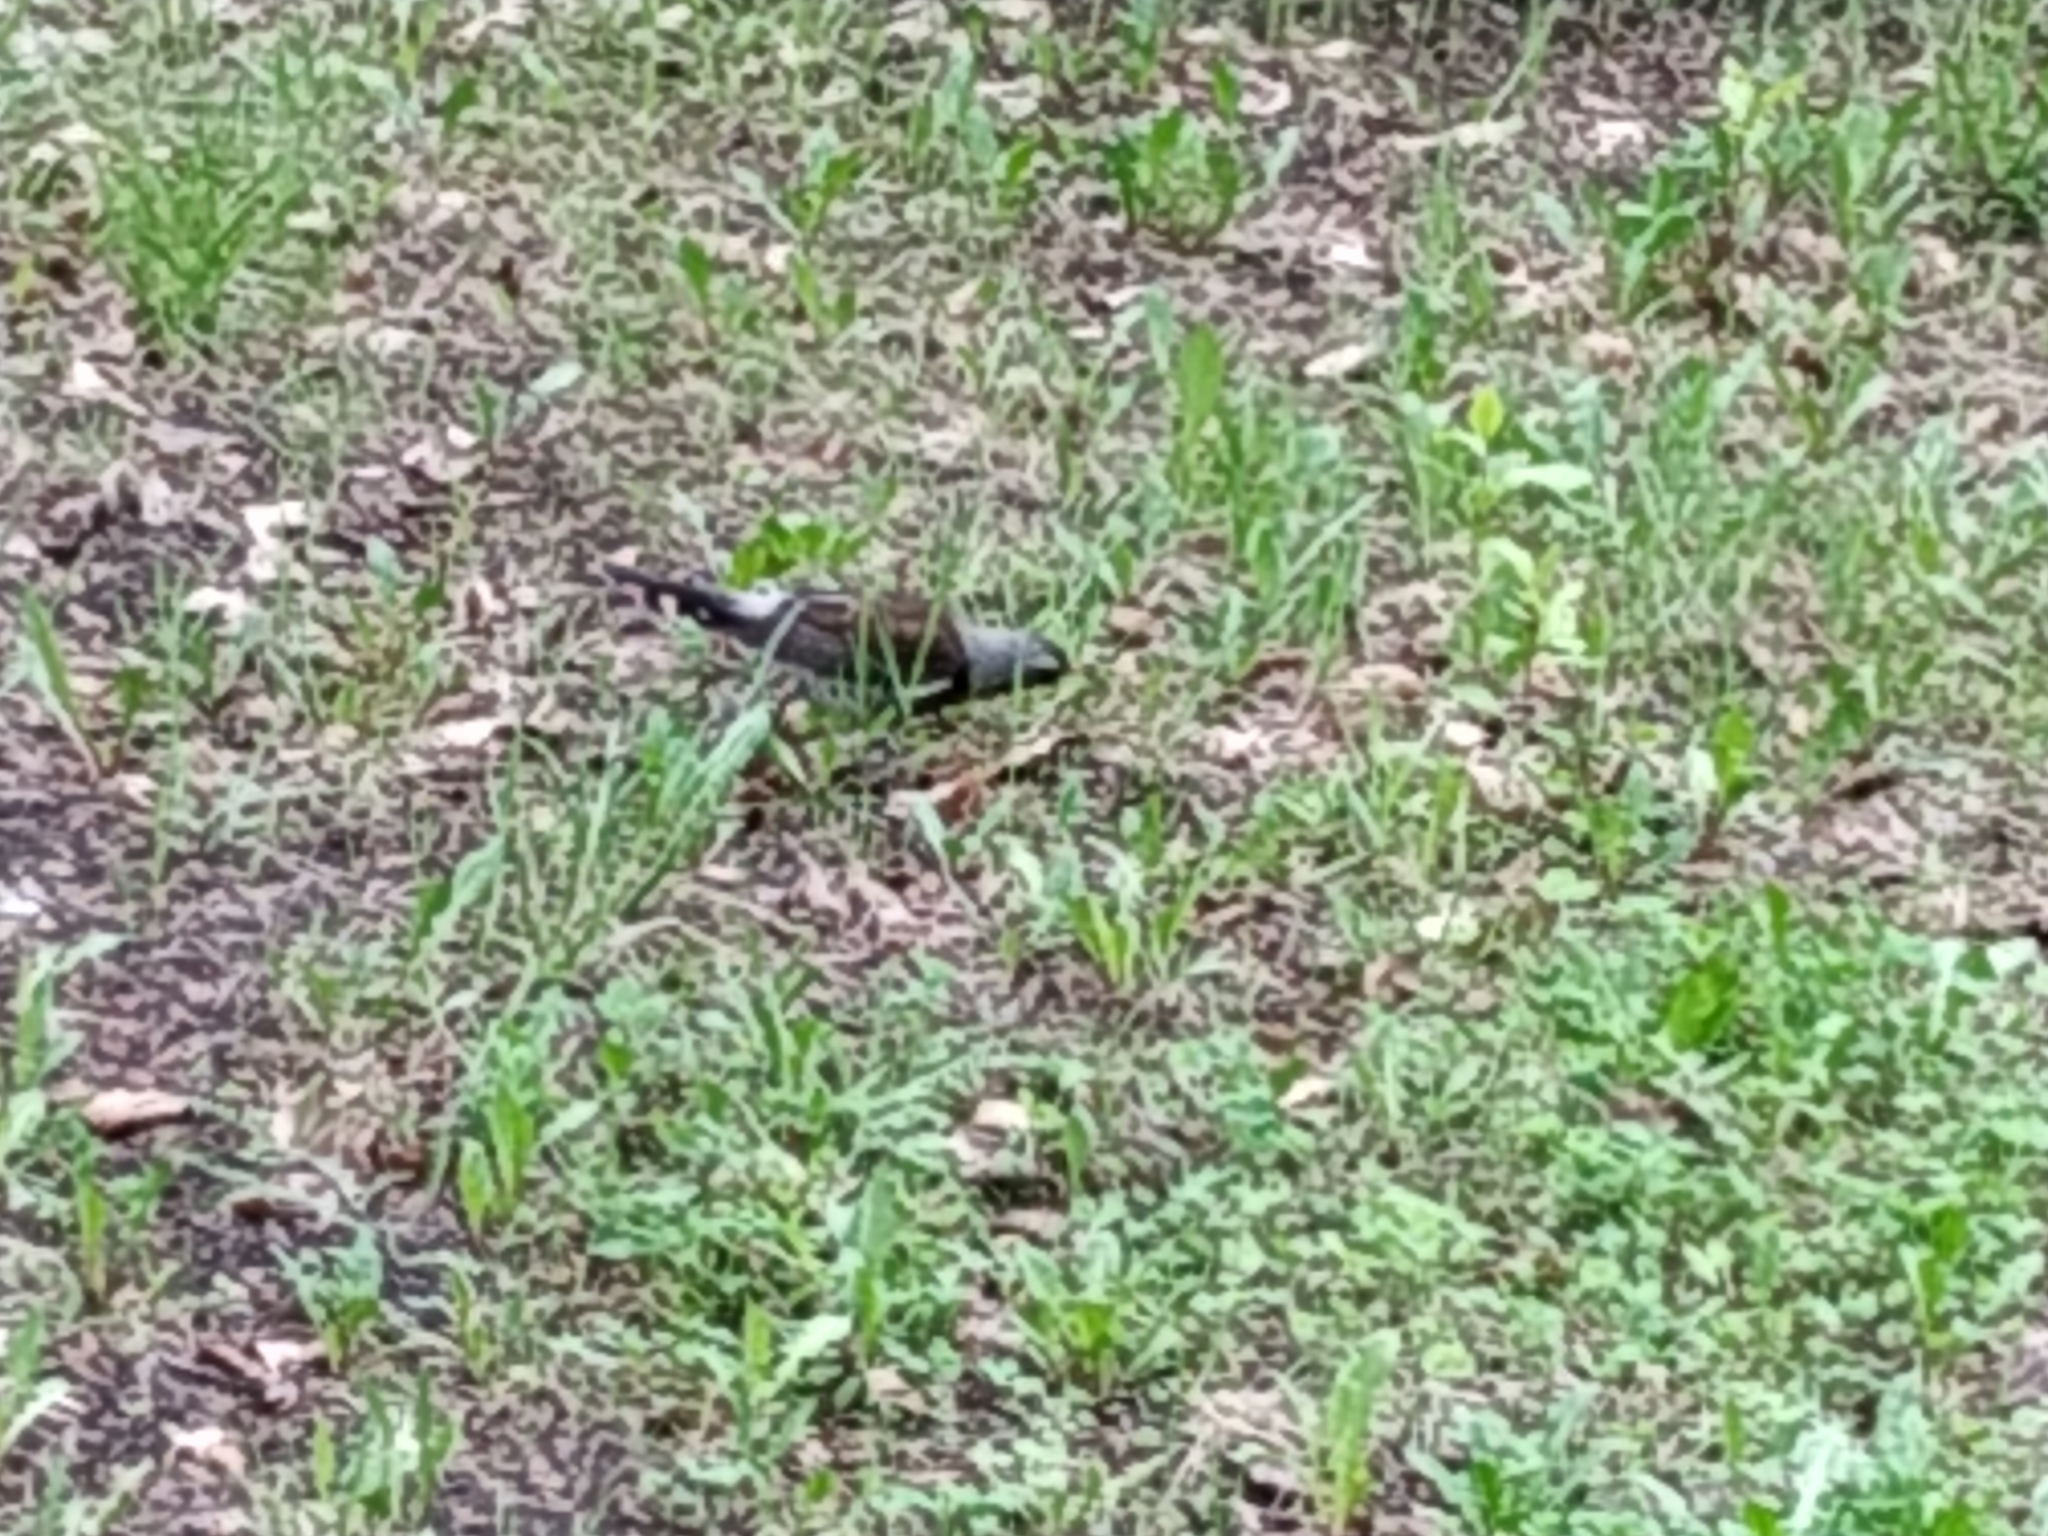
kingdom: Animalia
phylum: Chordata
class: Aves
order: Passeriformes
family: Turdidae
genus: Turdus
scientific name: Turdus pilaris
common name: Fieldfare
